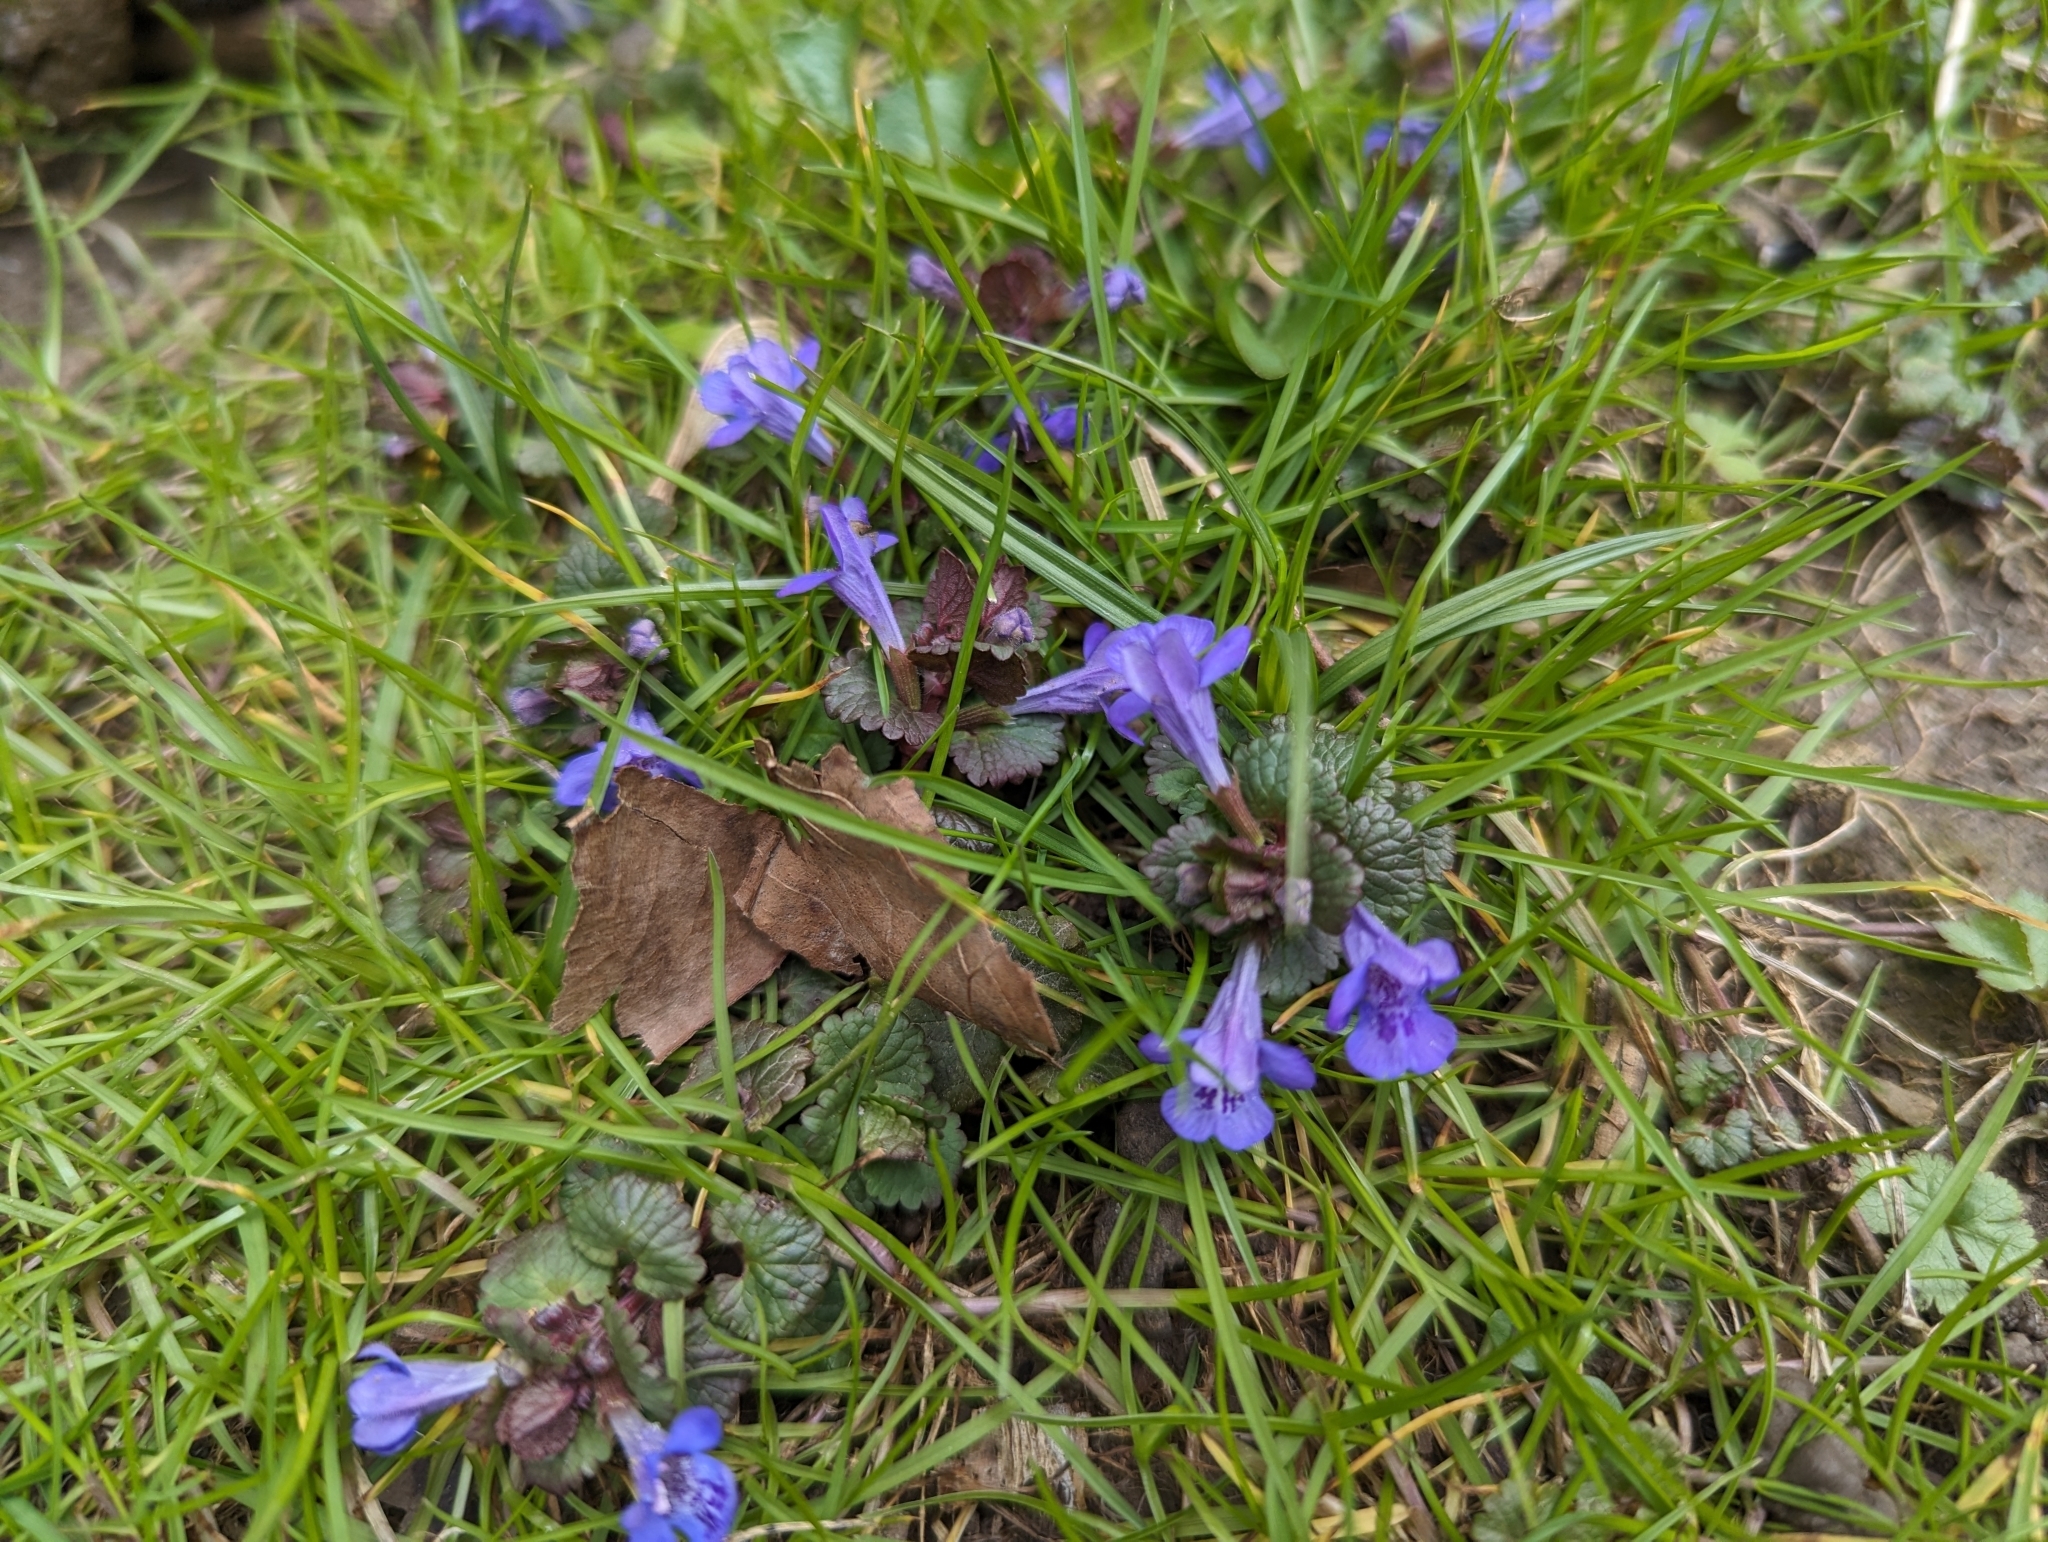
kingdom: Plantae
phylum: Tracheophyta
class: Magnoliopsida
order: Lamiales
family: Lamiaceae
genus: Glechoma
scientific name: Glechoma hederacea
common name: Ground ivy
